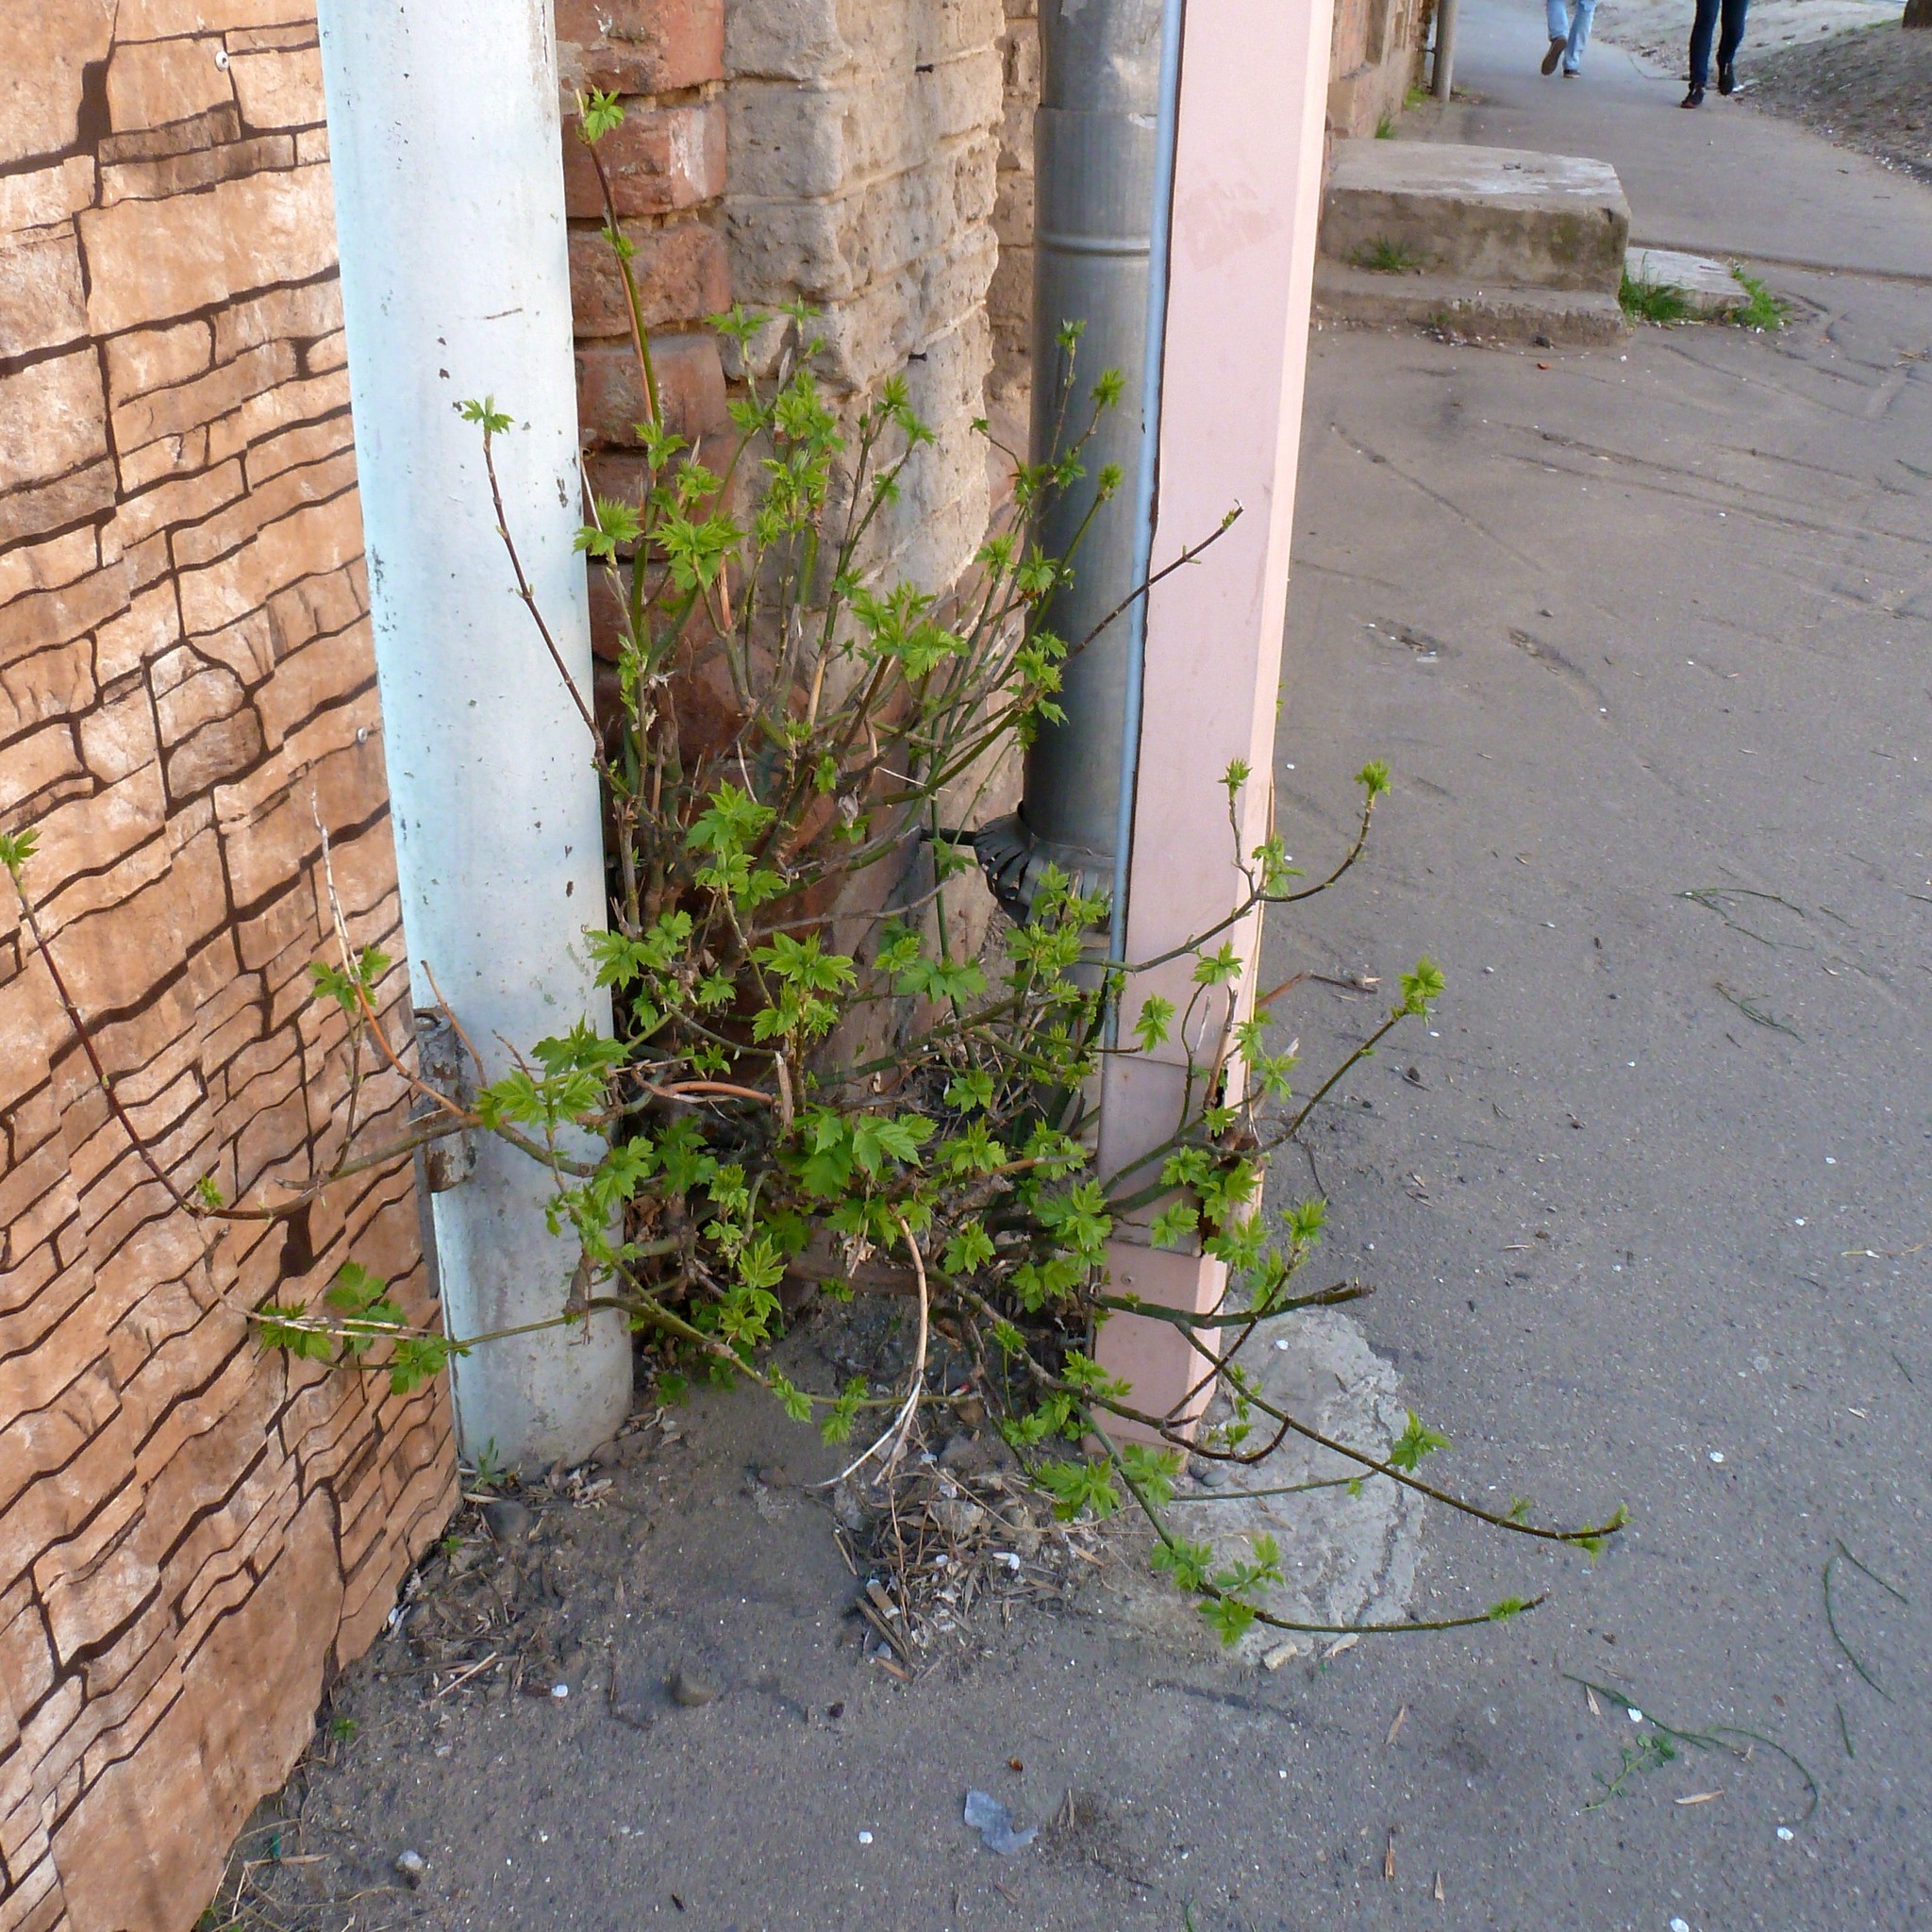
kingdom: Plantae
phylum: Tracheophyta
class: Magnoliopsida
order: Sapindales
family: Sapindaceae
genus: Acer
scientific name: Acer negundo
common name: Ashleaf maple
